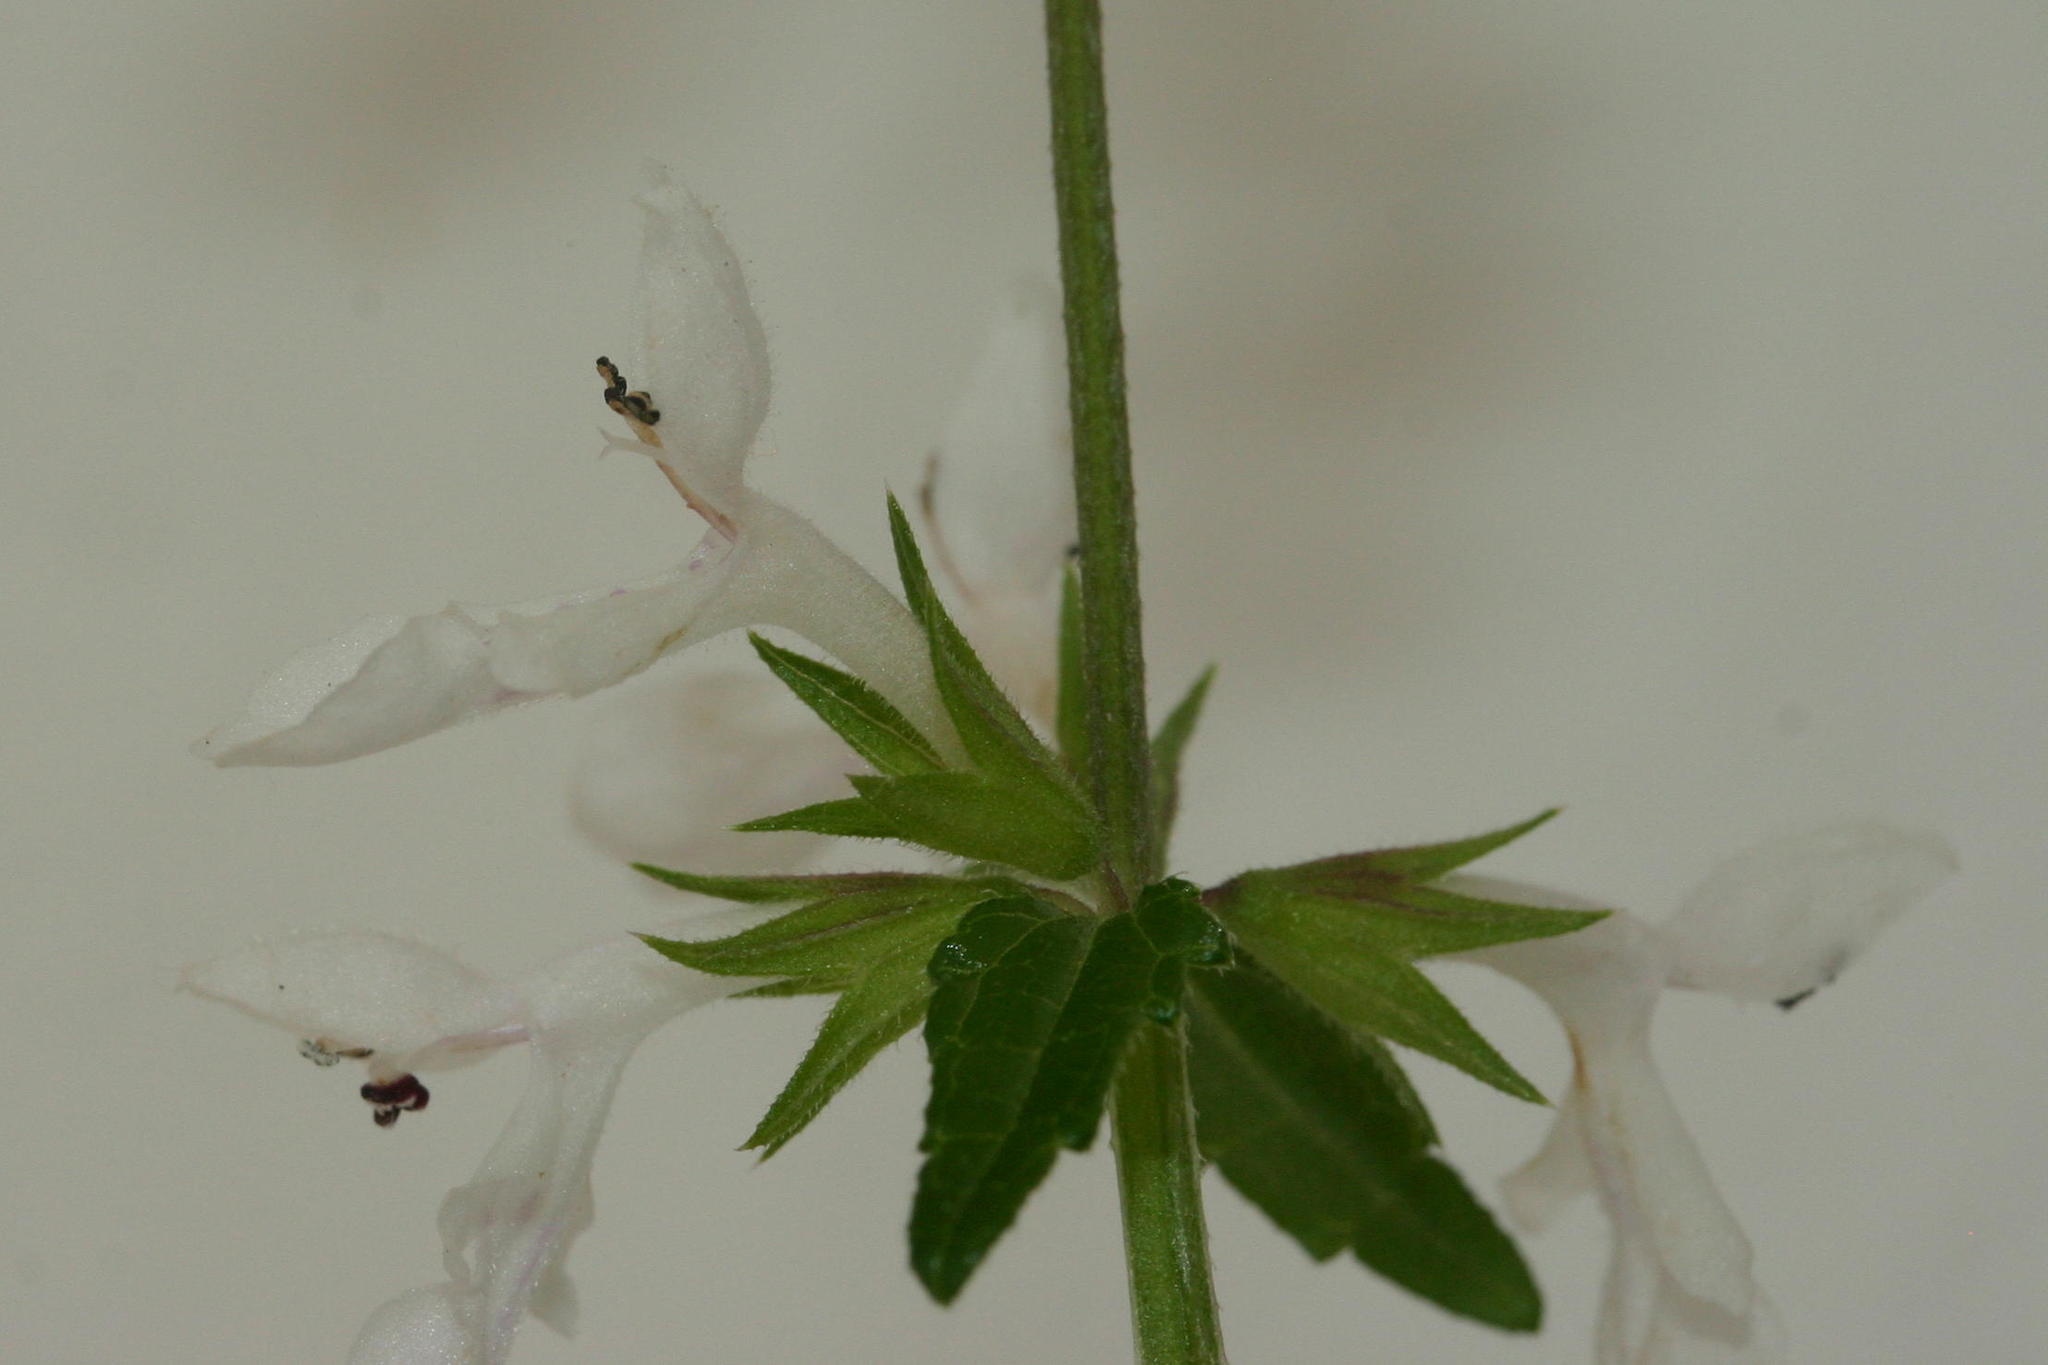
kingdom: Plantae
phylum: Tracheophyta
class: Magnoliopsida
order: Lamiales
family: Lamiaceae
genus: Stachys
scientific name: Stachys aethiopica
